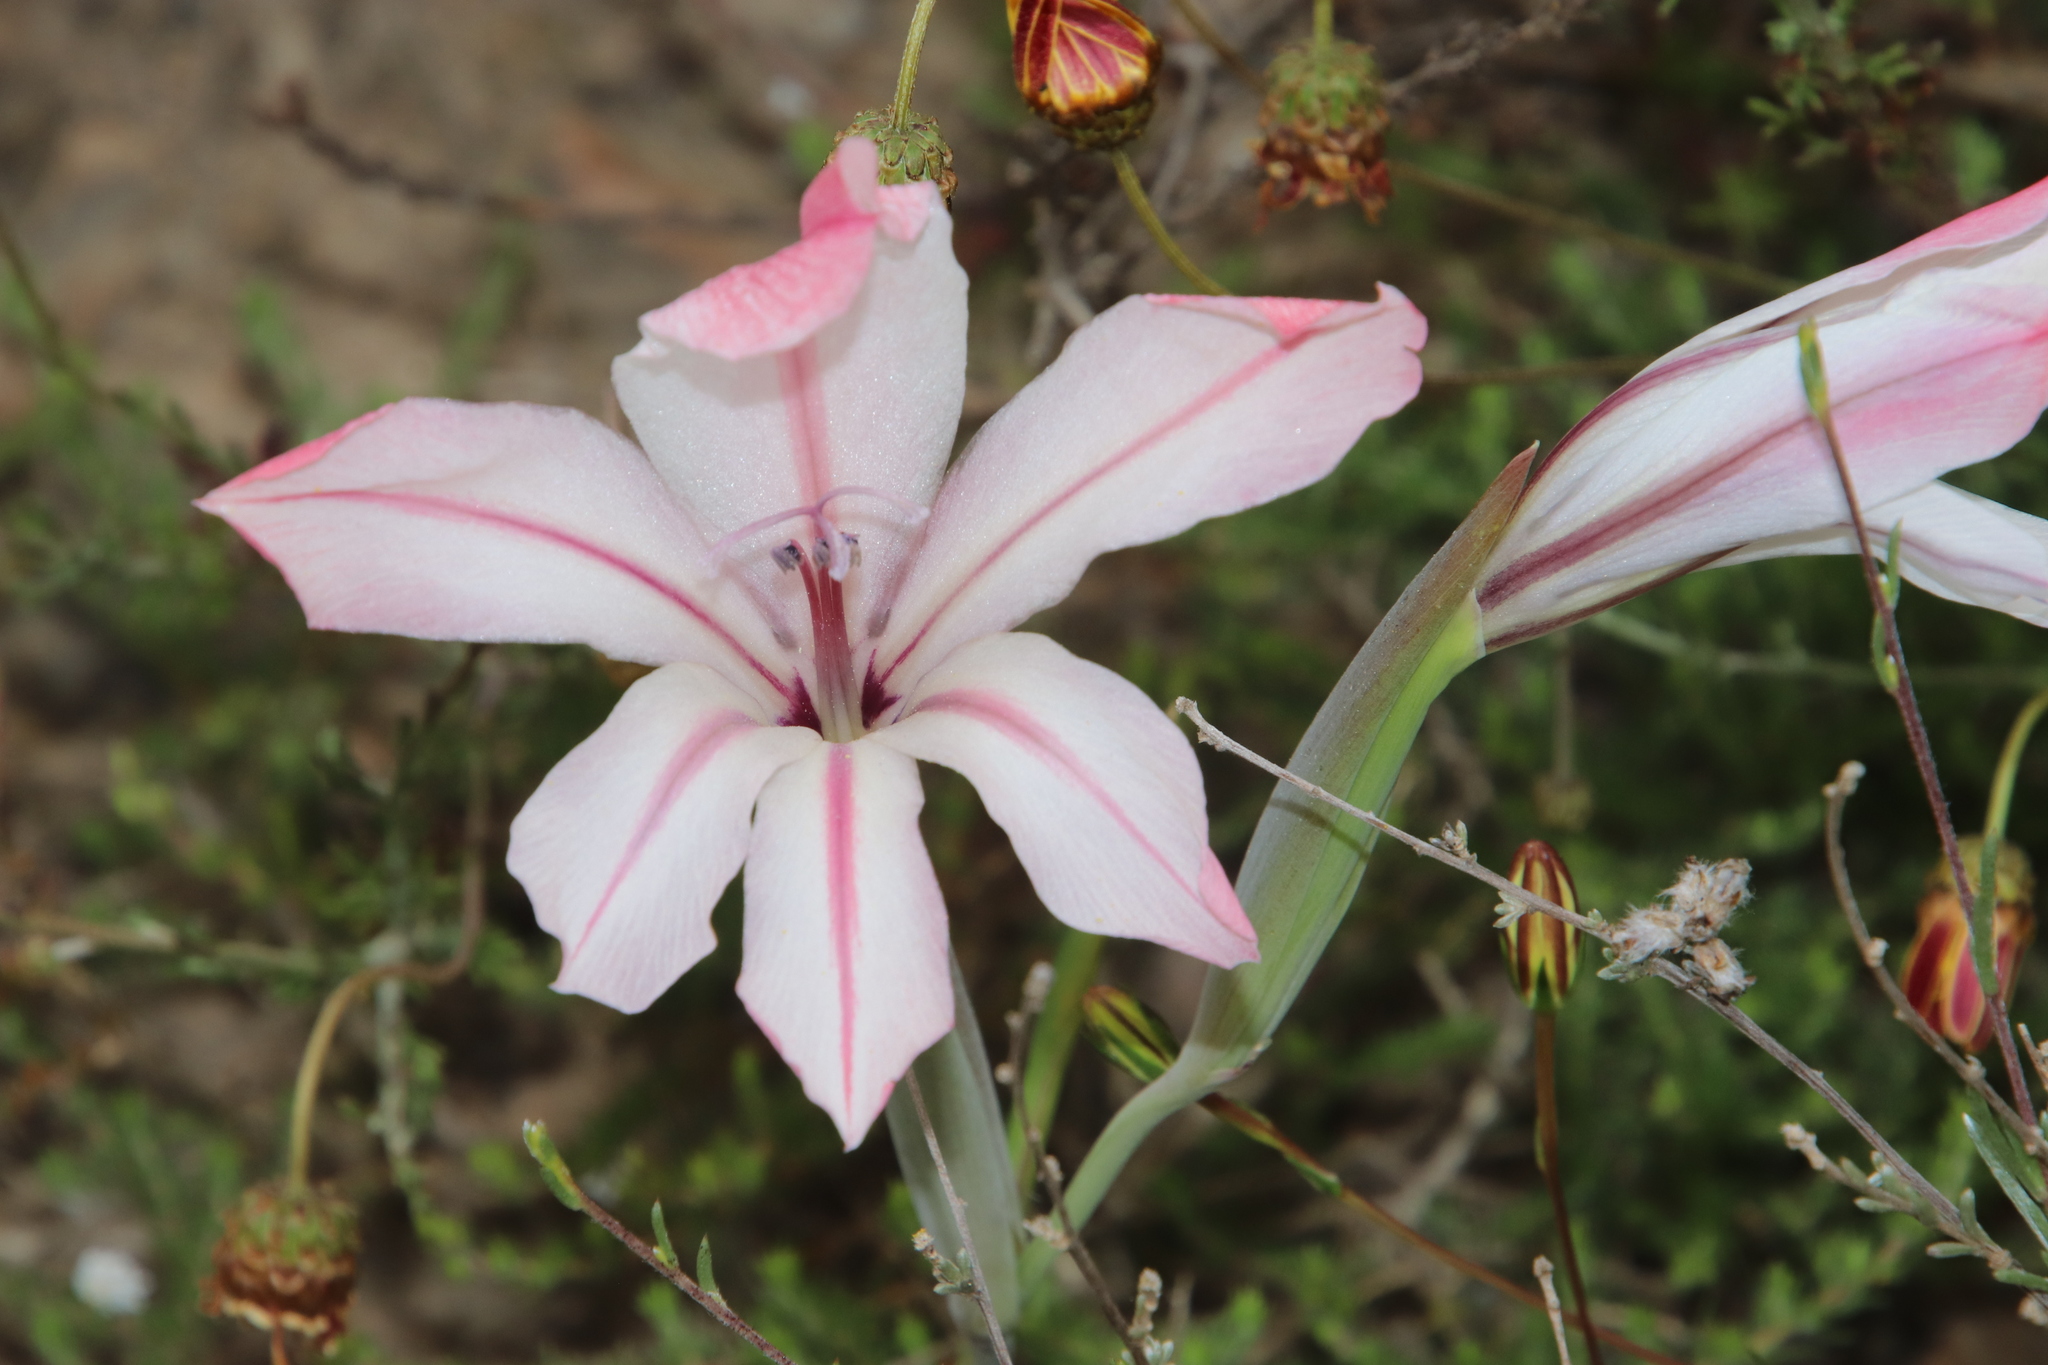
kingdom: Plantae
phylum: Tracheophyta
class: Liliopsida
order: Asparagales
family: Iridaceae
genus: Gladiolus
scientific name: Gladiolus floribundus
